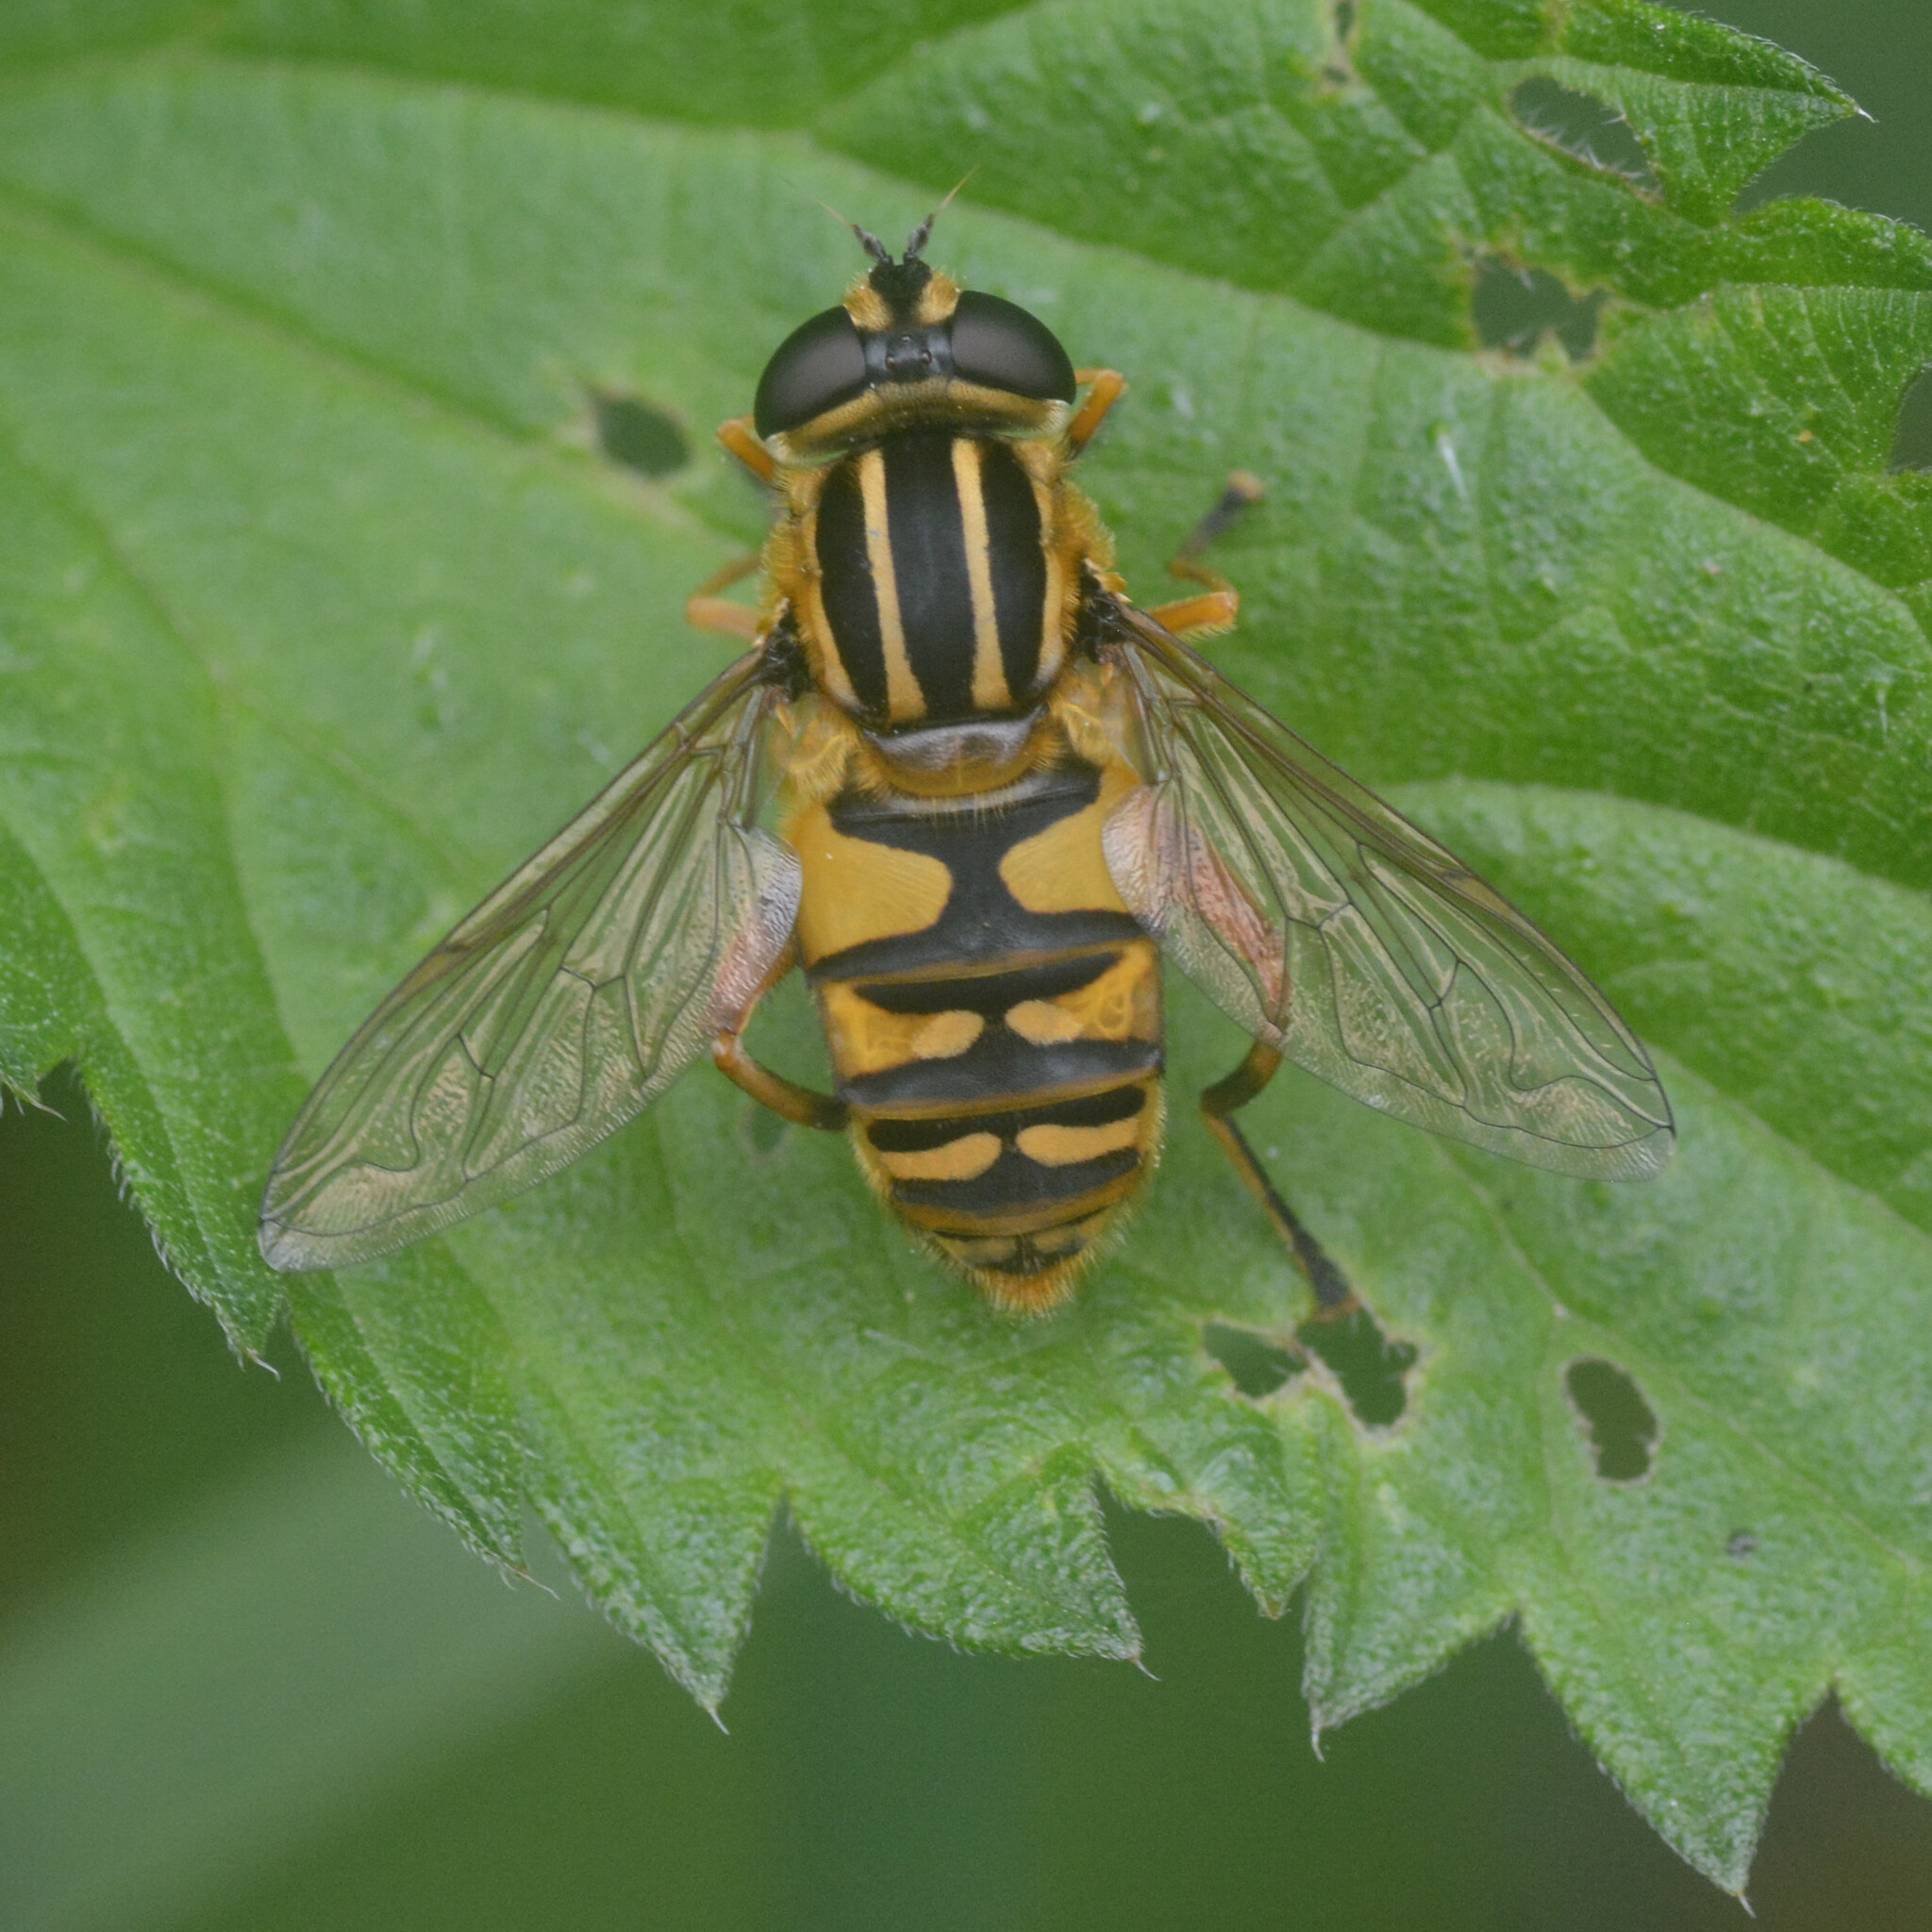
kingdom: Animalia
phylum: Arthropoda
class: Insecta
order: Diptera
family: Syrphidae
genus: Helophilus
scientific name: Helophilus pendulus
